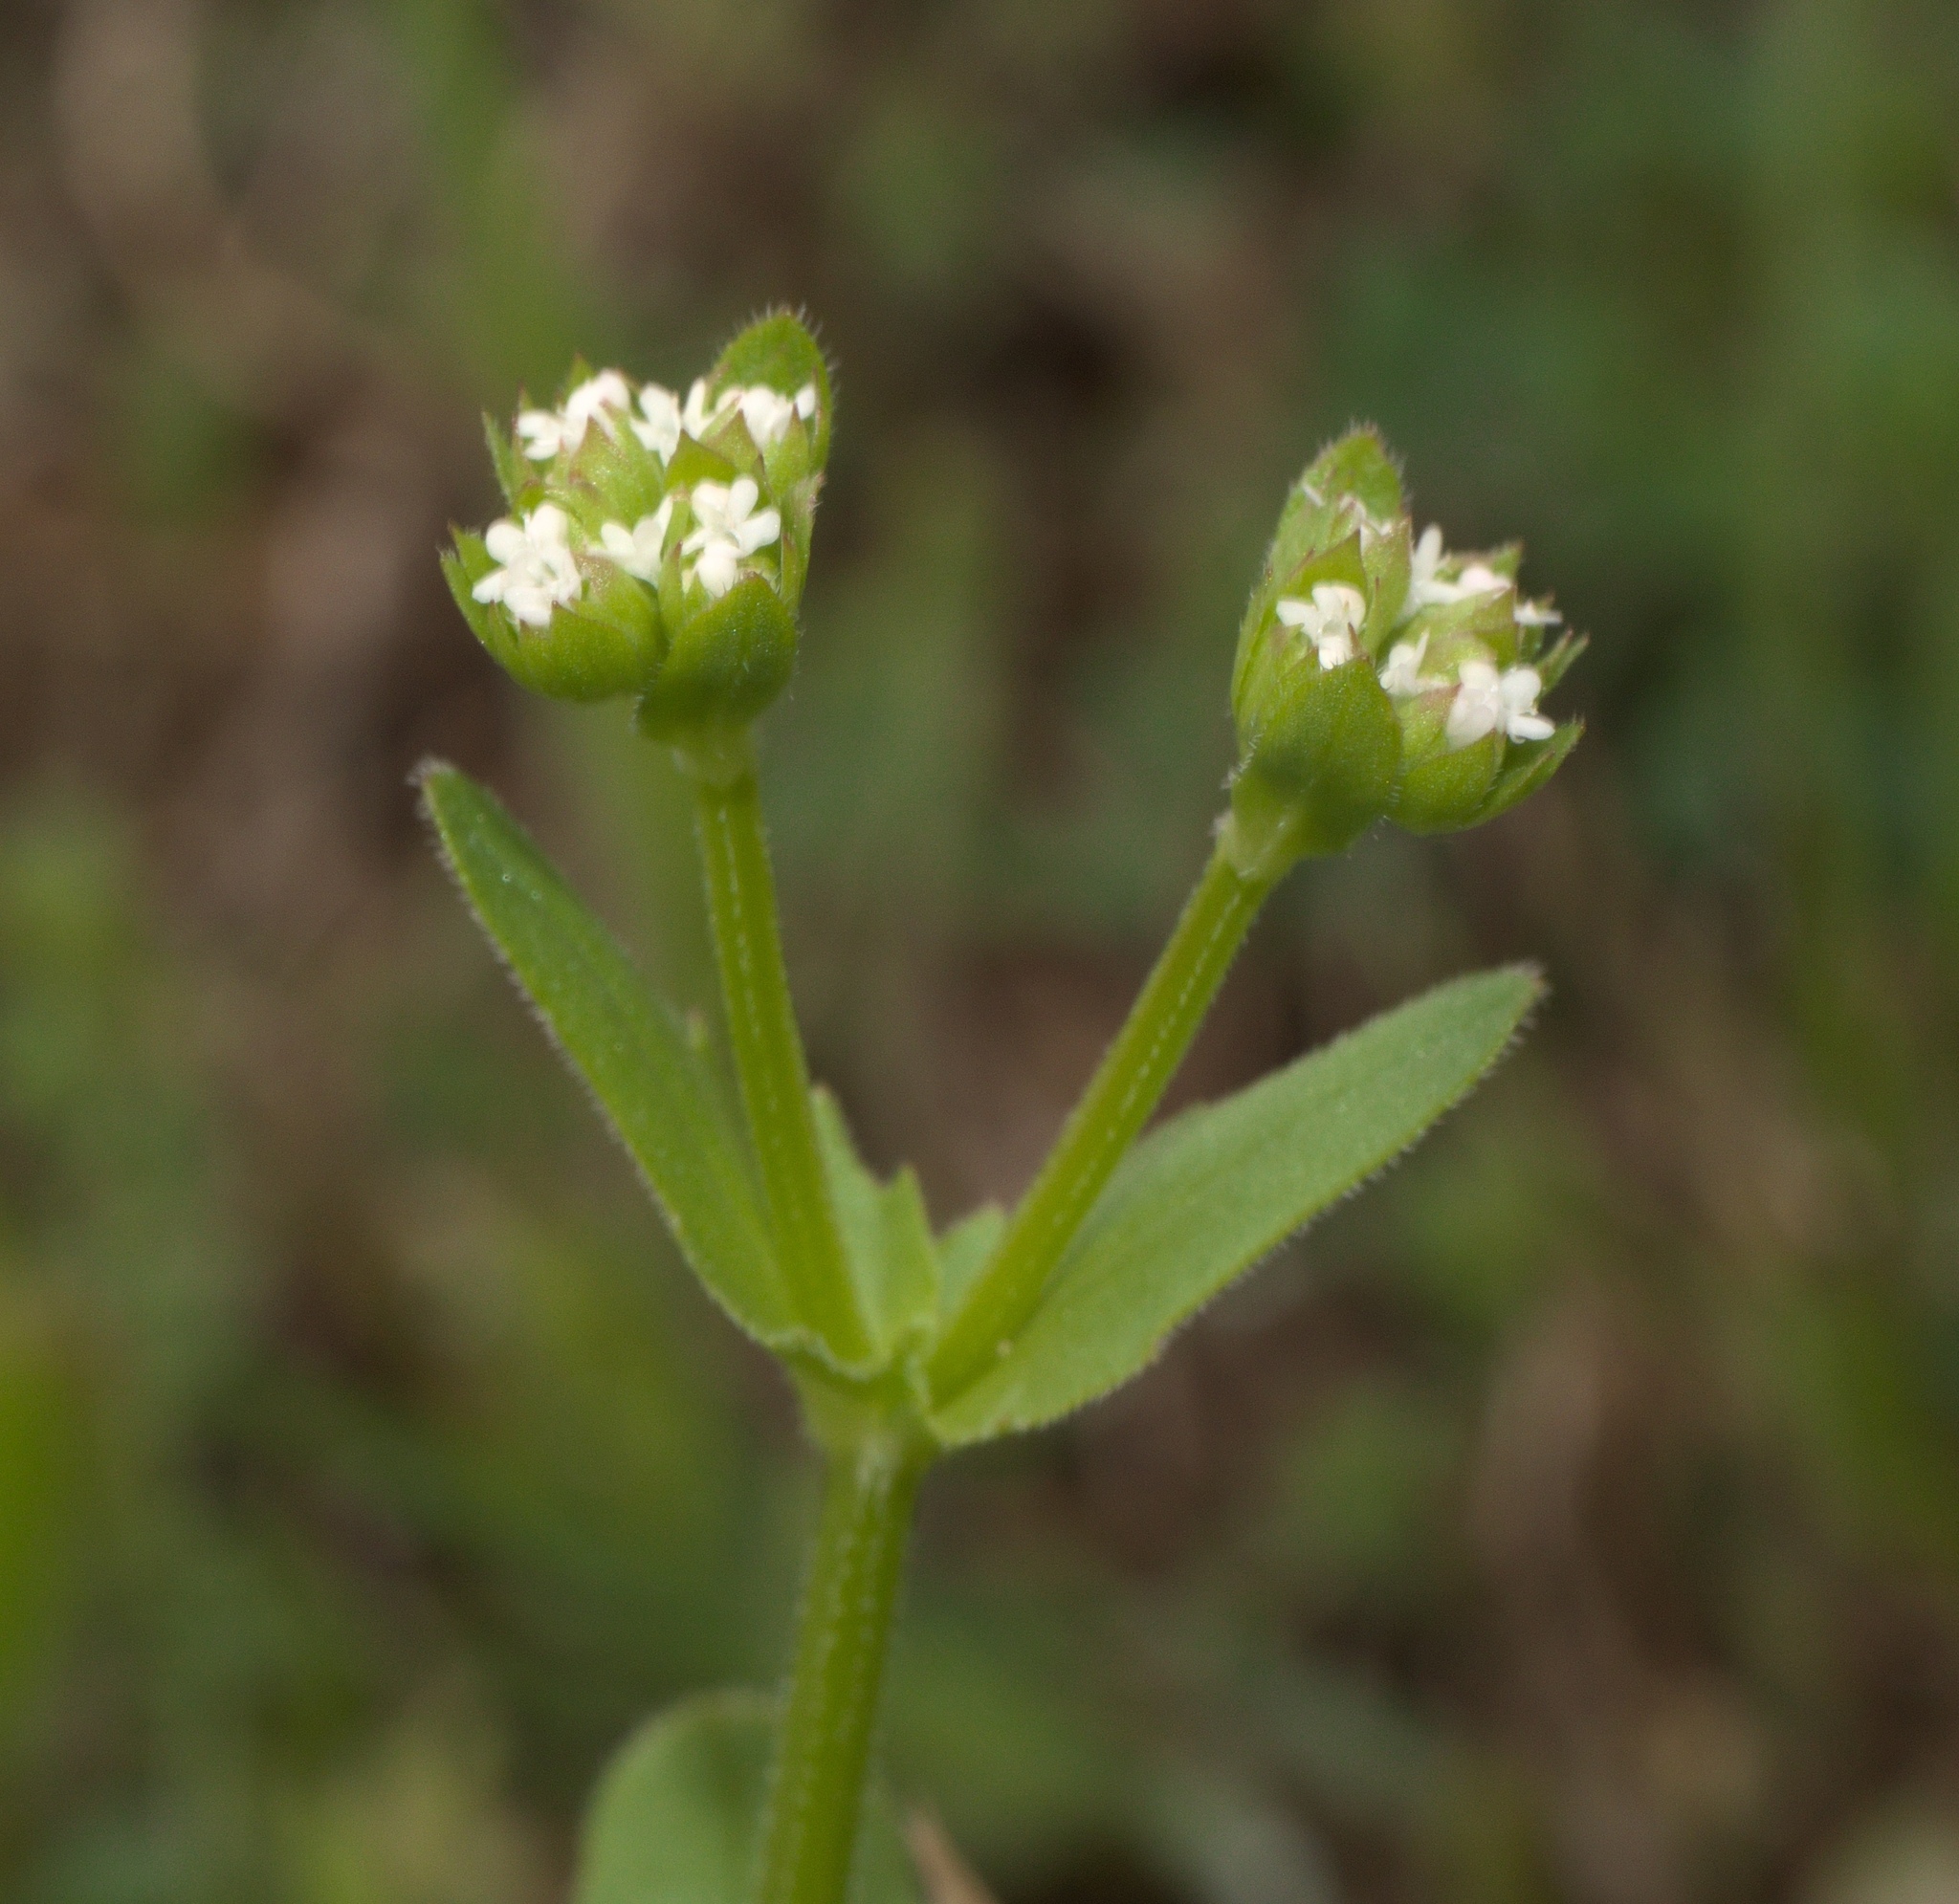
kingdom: Plantae
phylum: Tracheophyta
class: Magnoliopsida
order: Dipsacales
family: Caprifoliaceae
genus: Valerianella
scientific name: Valerianella radiata
